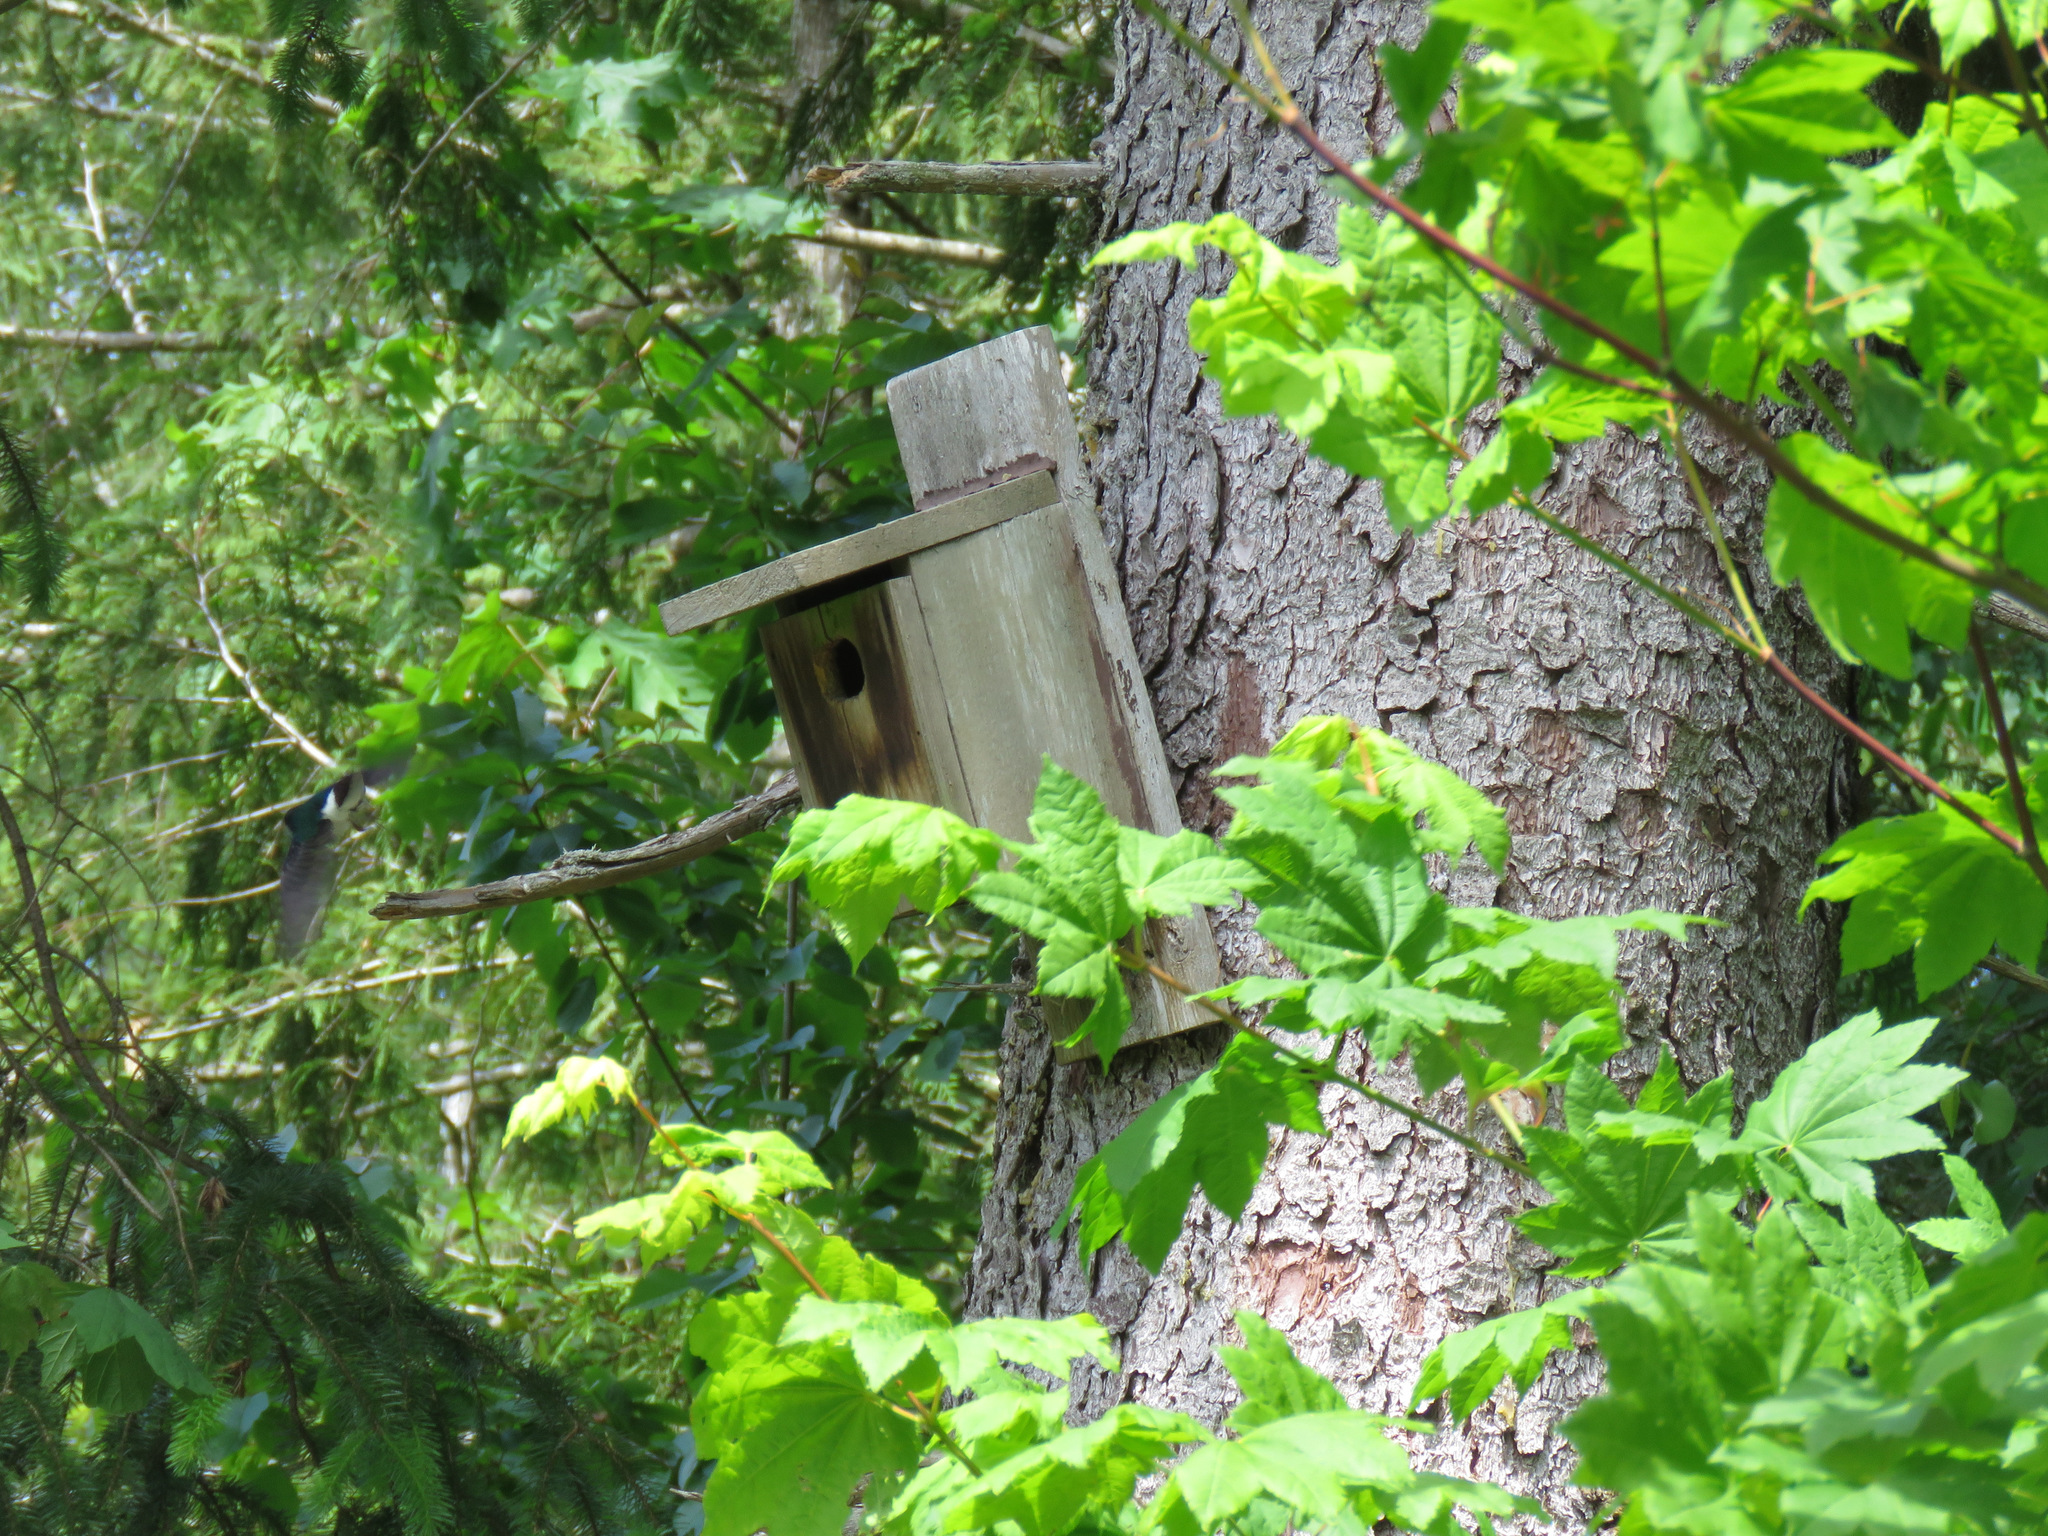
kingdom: Animalia
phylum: Chordata
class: Aves
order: Passeriformes
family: Hirundinidae
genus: Tachycineta
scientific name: Tachycineta thalassina
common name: Violet-green swallow
